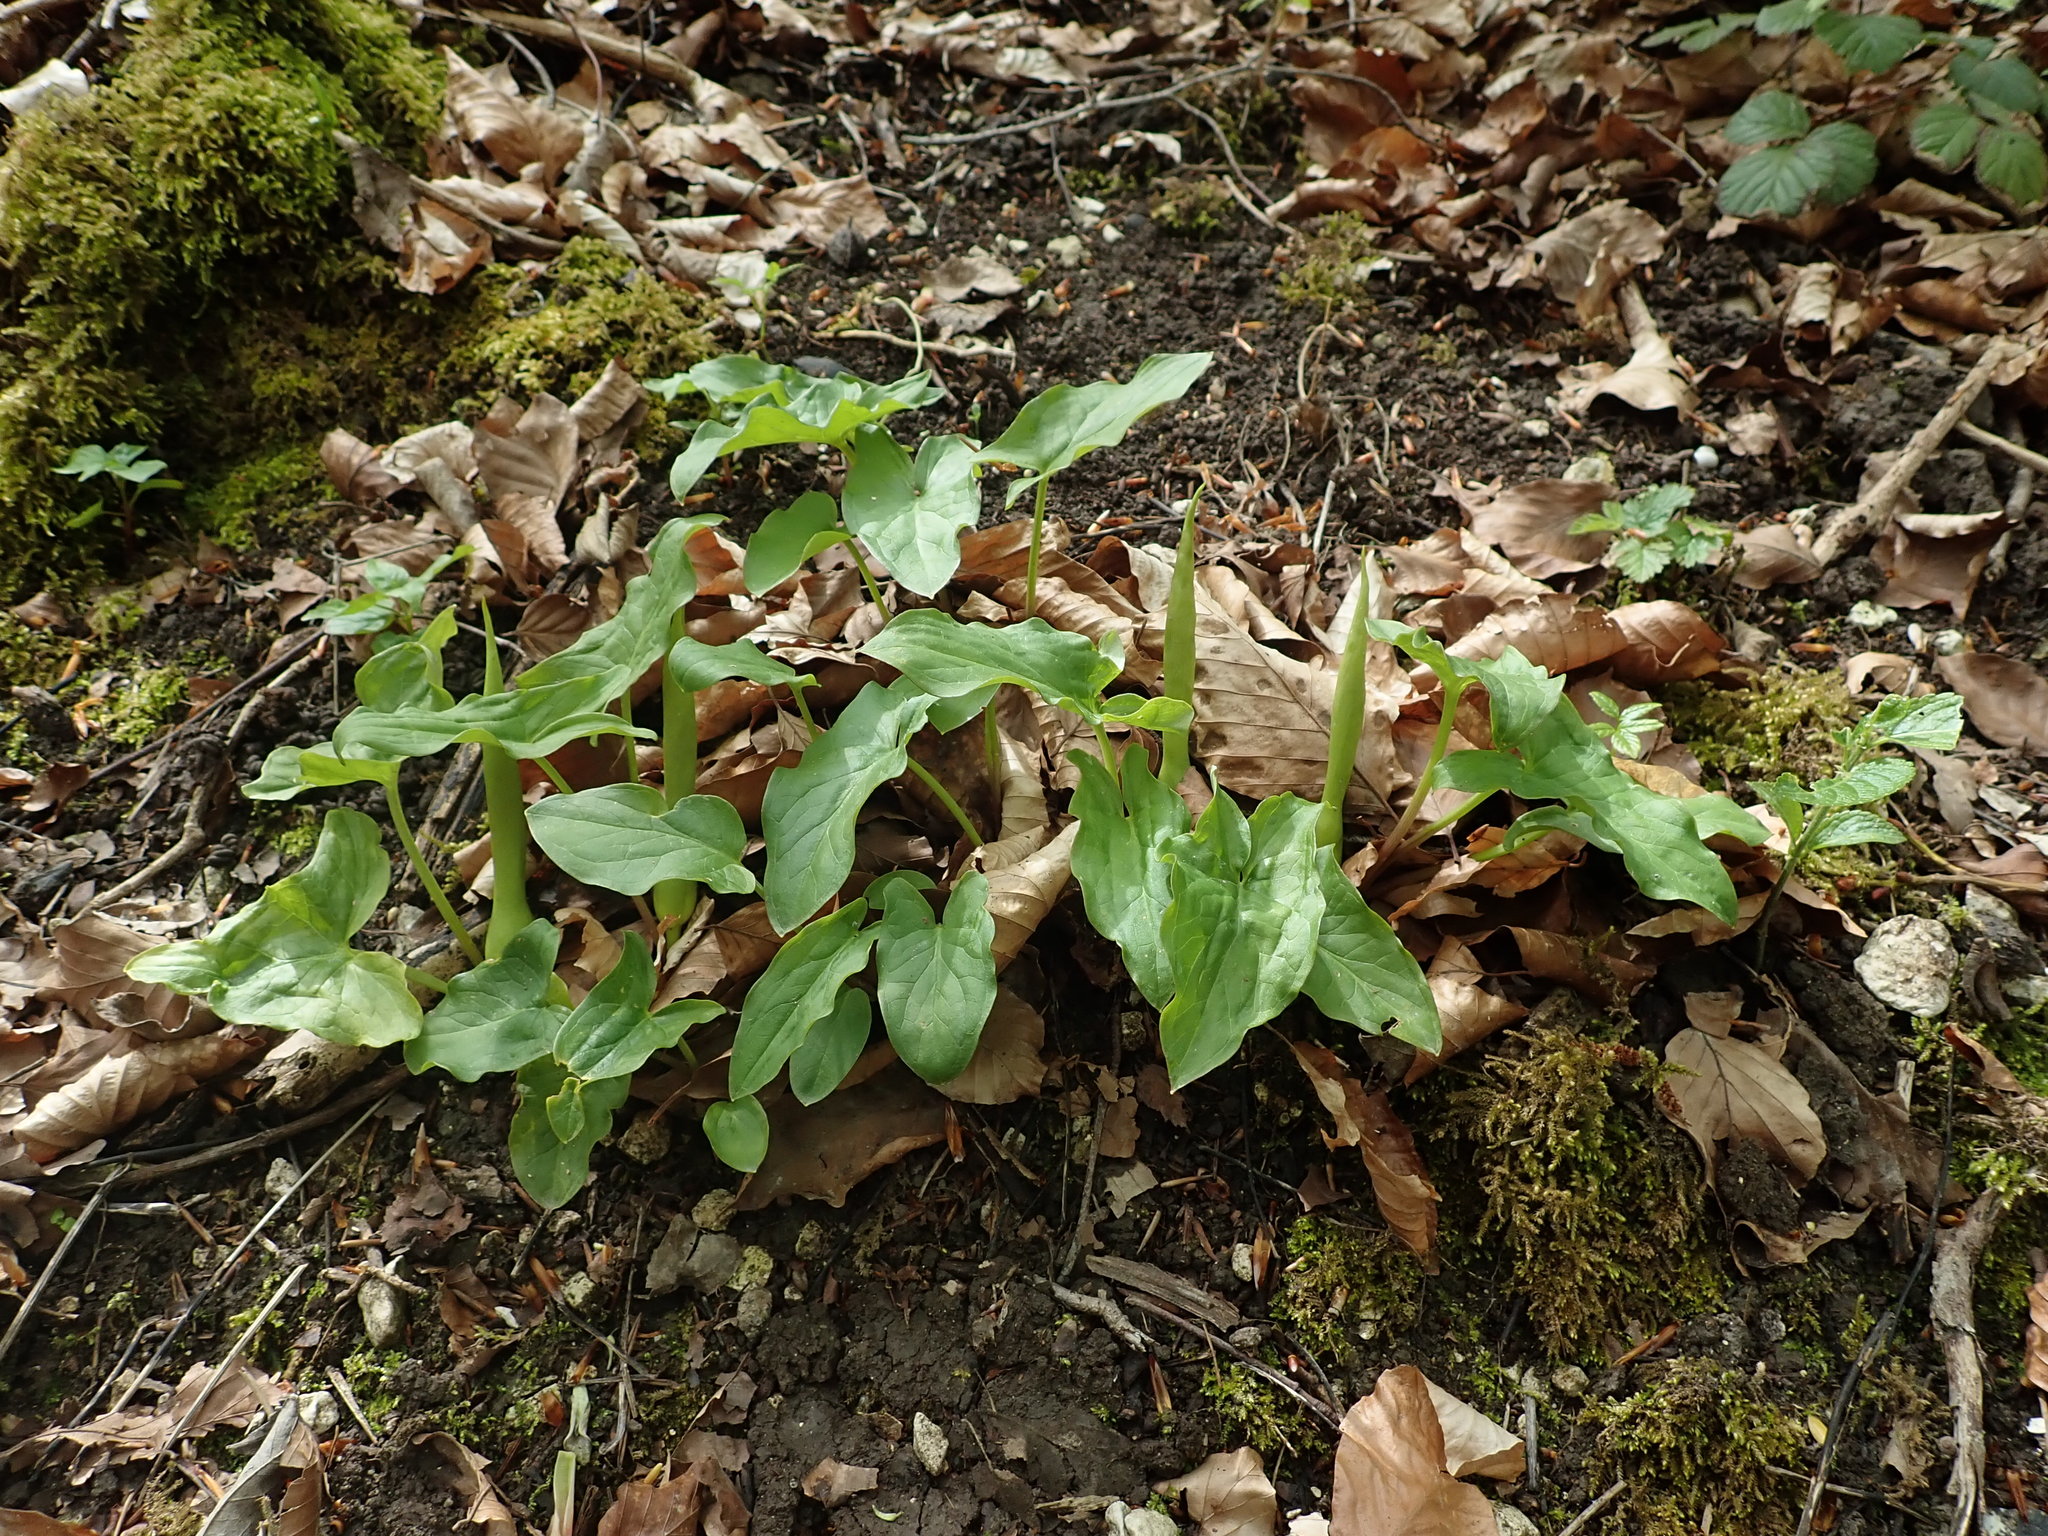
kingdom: Plantae
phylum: Tracheophyta
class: Liliopsida
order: Alismatales
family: Araceae
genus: Arum
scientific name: Arum maculatum
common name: Lords-and-ladies
